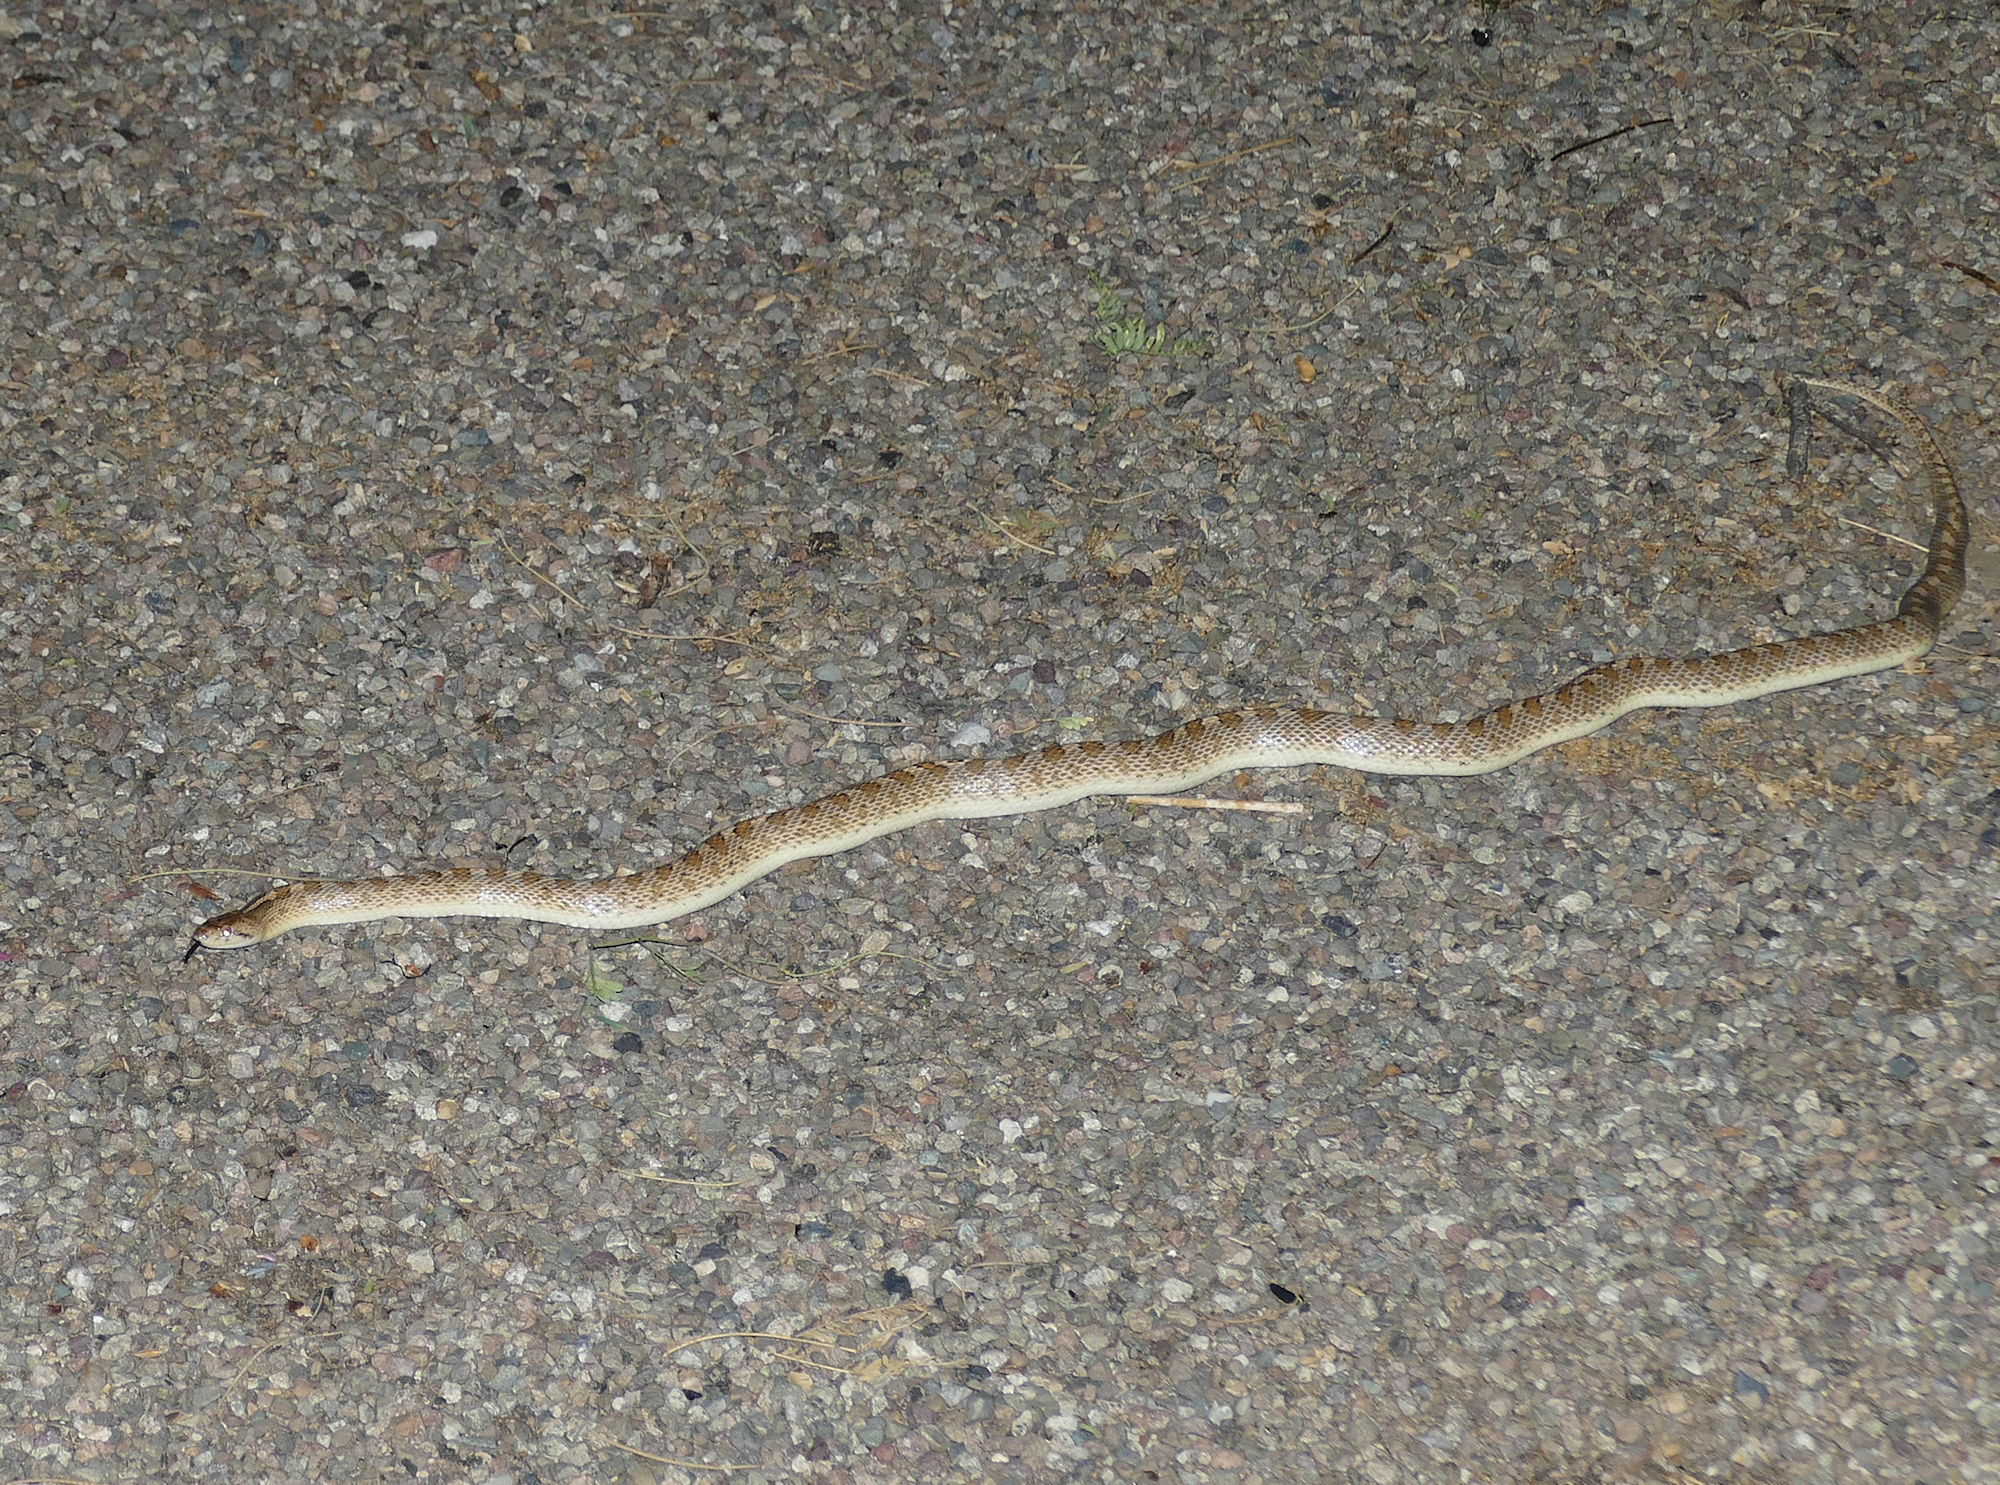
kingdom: Animalia
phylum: Chordata
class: Squamata
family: Colubridae
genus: Arizona
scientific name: Arizona elegans
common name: Glossy snake
